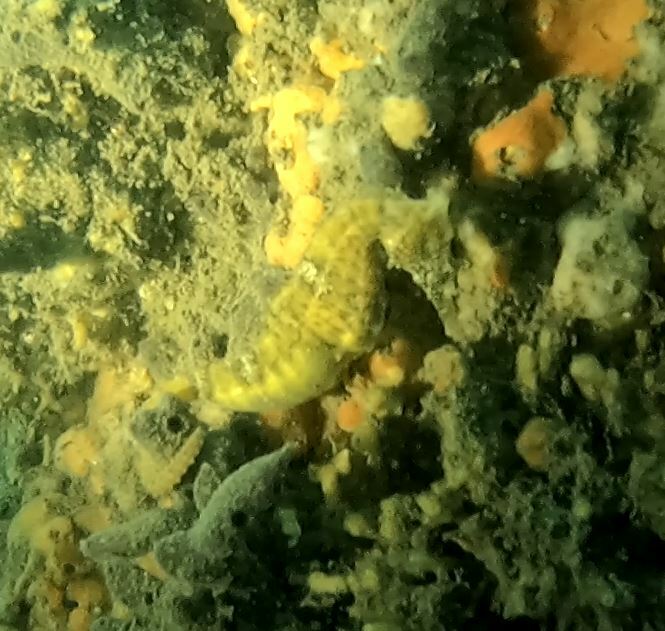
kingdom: Animalia
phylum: Chordata
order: Syngnathiformes
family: Syngnathidae
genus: Hippocampus
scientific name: Hippocampus whitei
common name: New holland seahorse
